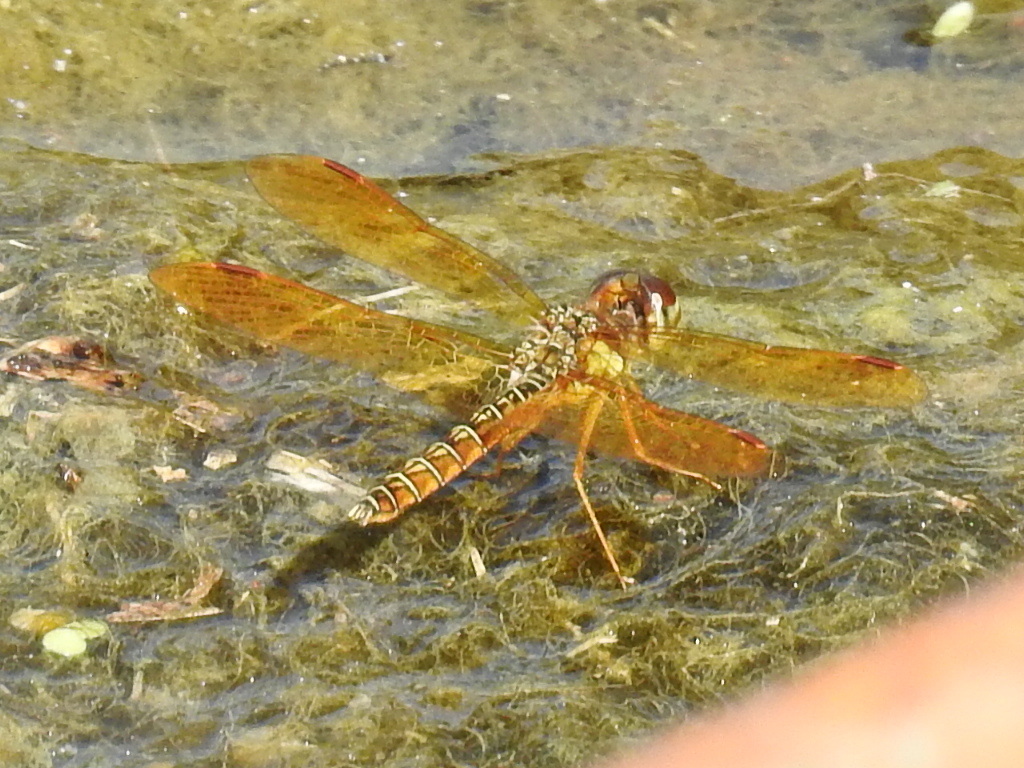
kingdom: Animalia
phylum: Arthropoda
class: Insecta
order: Odonata
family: Libellulidae
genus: Perithemis
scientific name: Perithemis tenera
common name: Eastern amberwing
